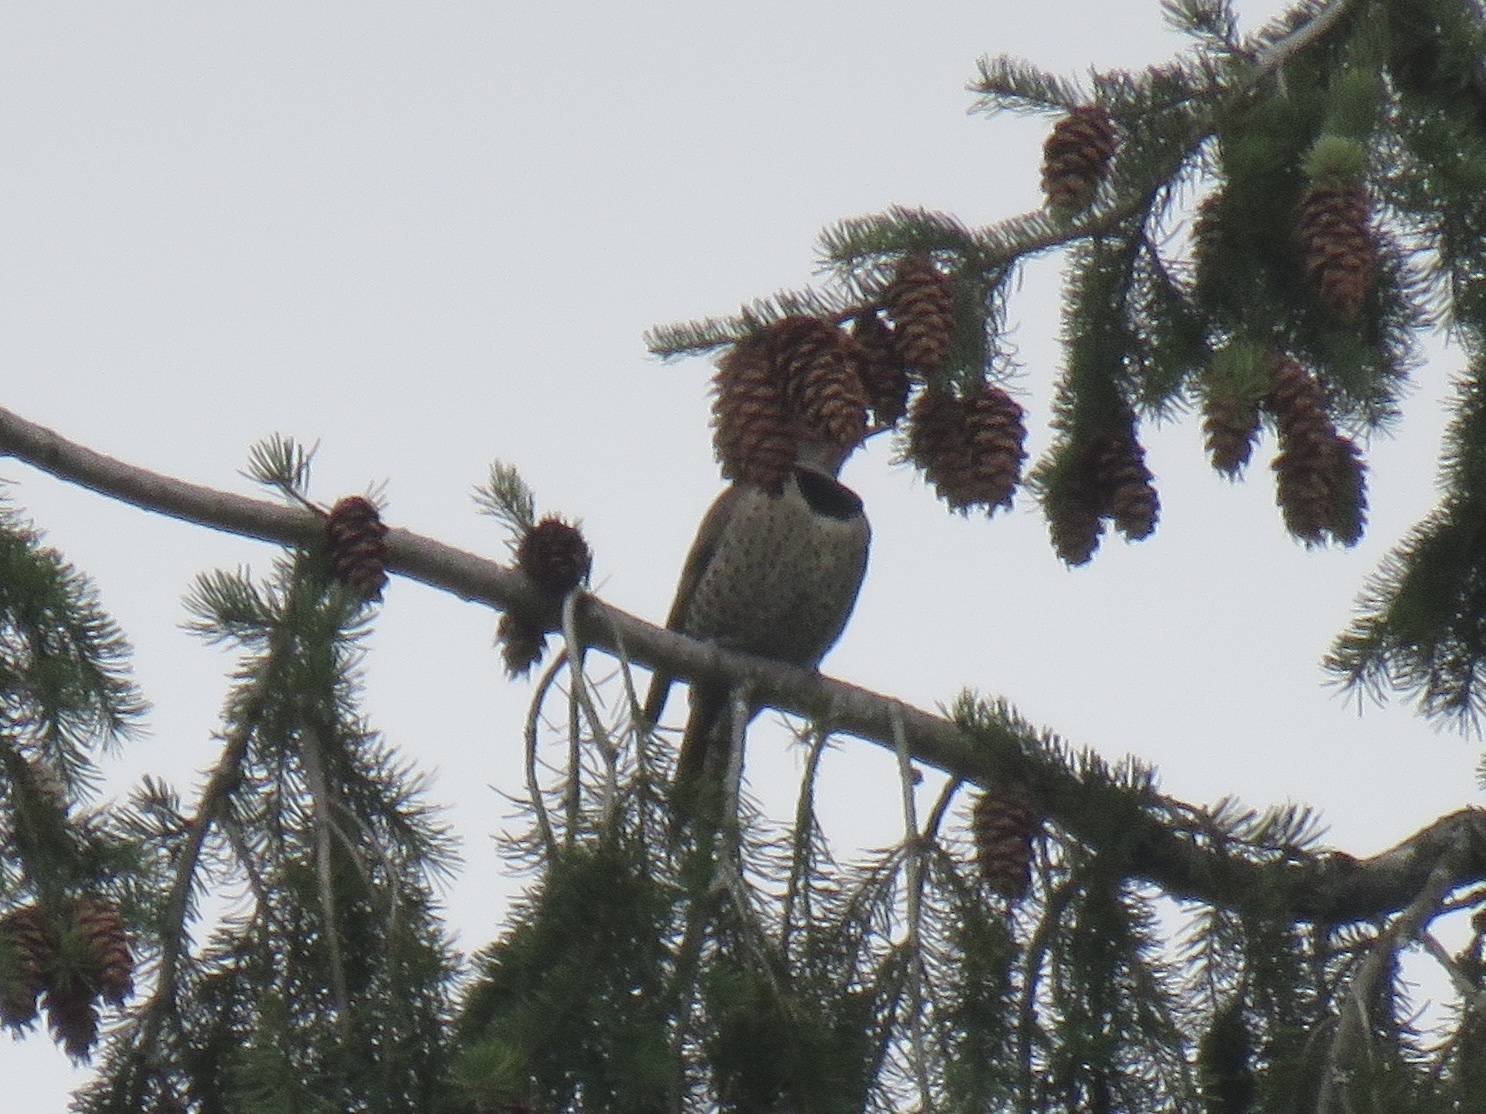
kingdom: Animalia
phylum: Chordata
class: Aves
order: Piciformes
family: Picidae
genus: Colaptes
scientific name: Colaptes auratus
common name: Northern flicker
